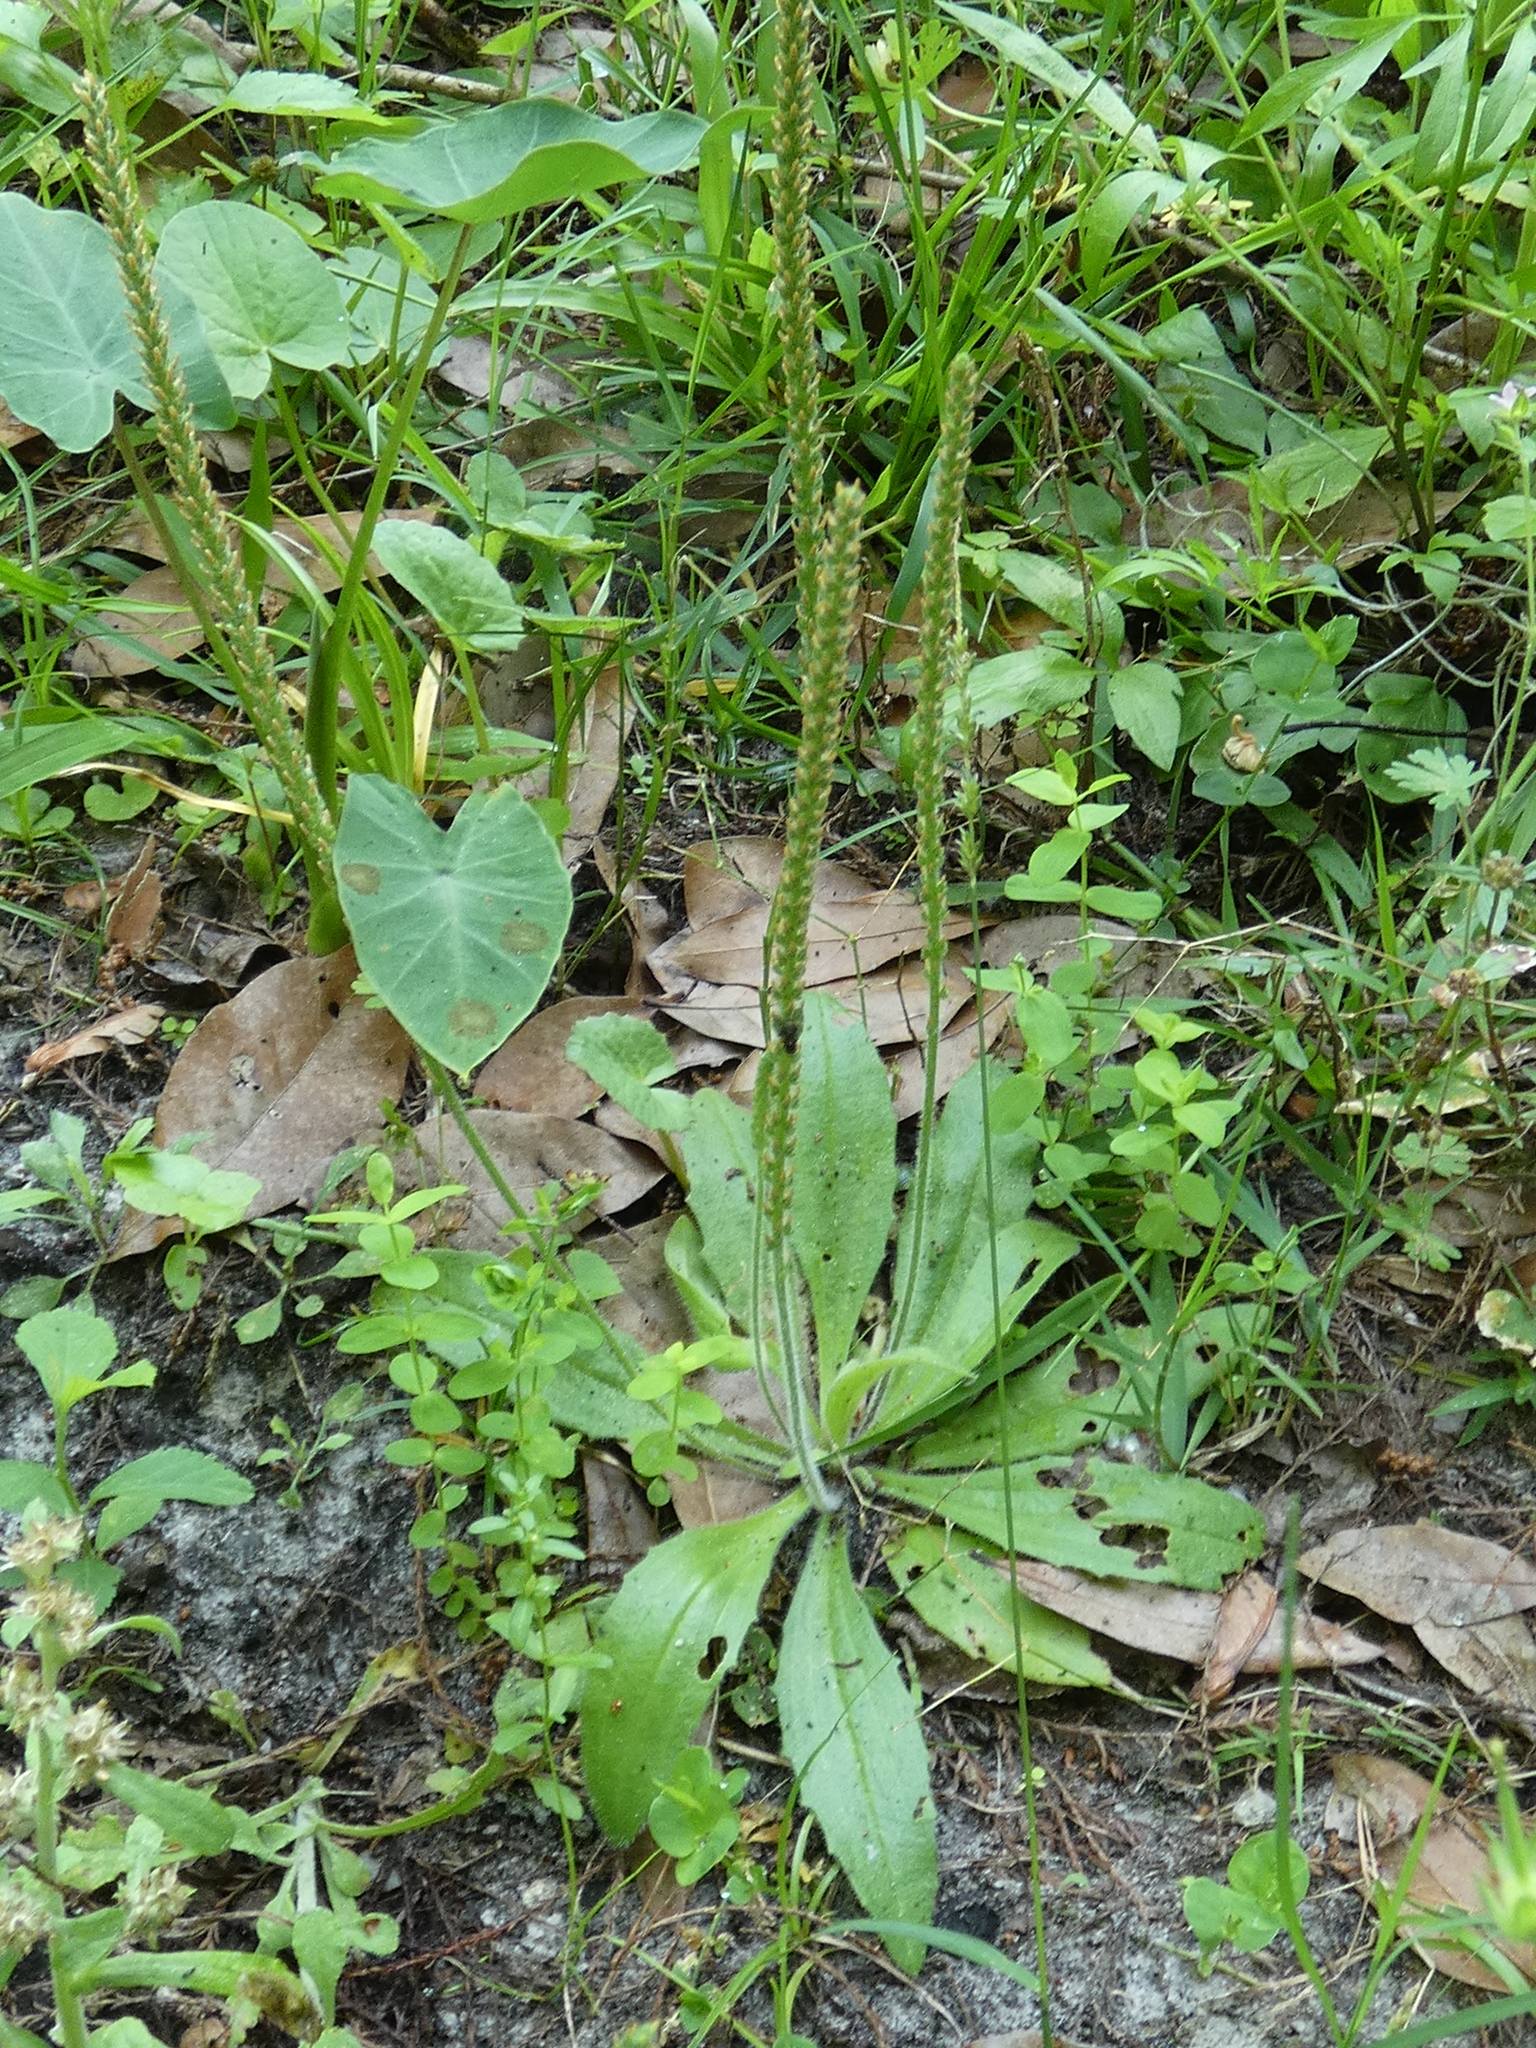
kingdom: Plantae
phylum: Tracheophyta
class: Magnoliopsida
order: Lamiales
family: Plantaginaceae
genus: Plantago
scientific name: Plantago virginica
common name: Hoary plantain
